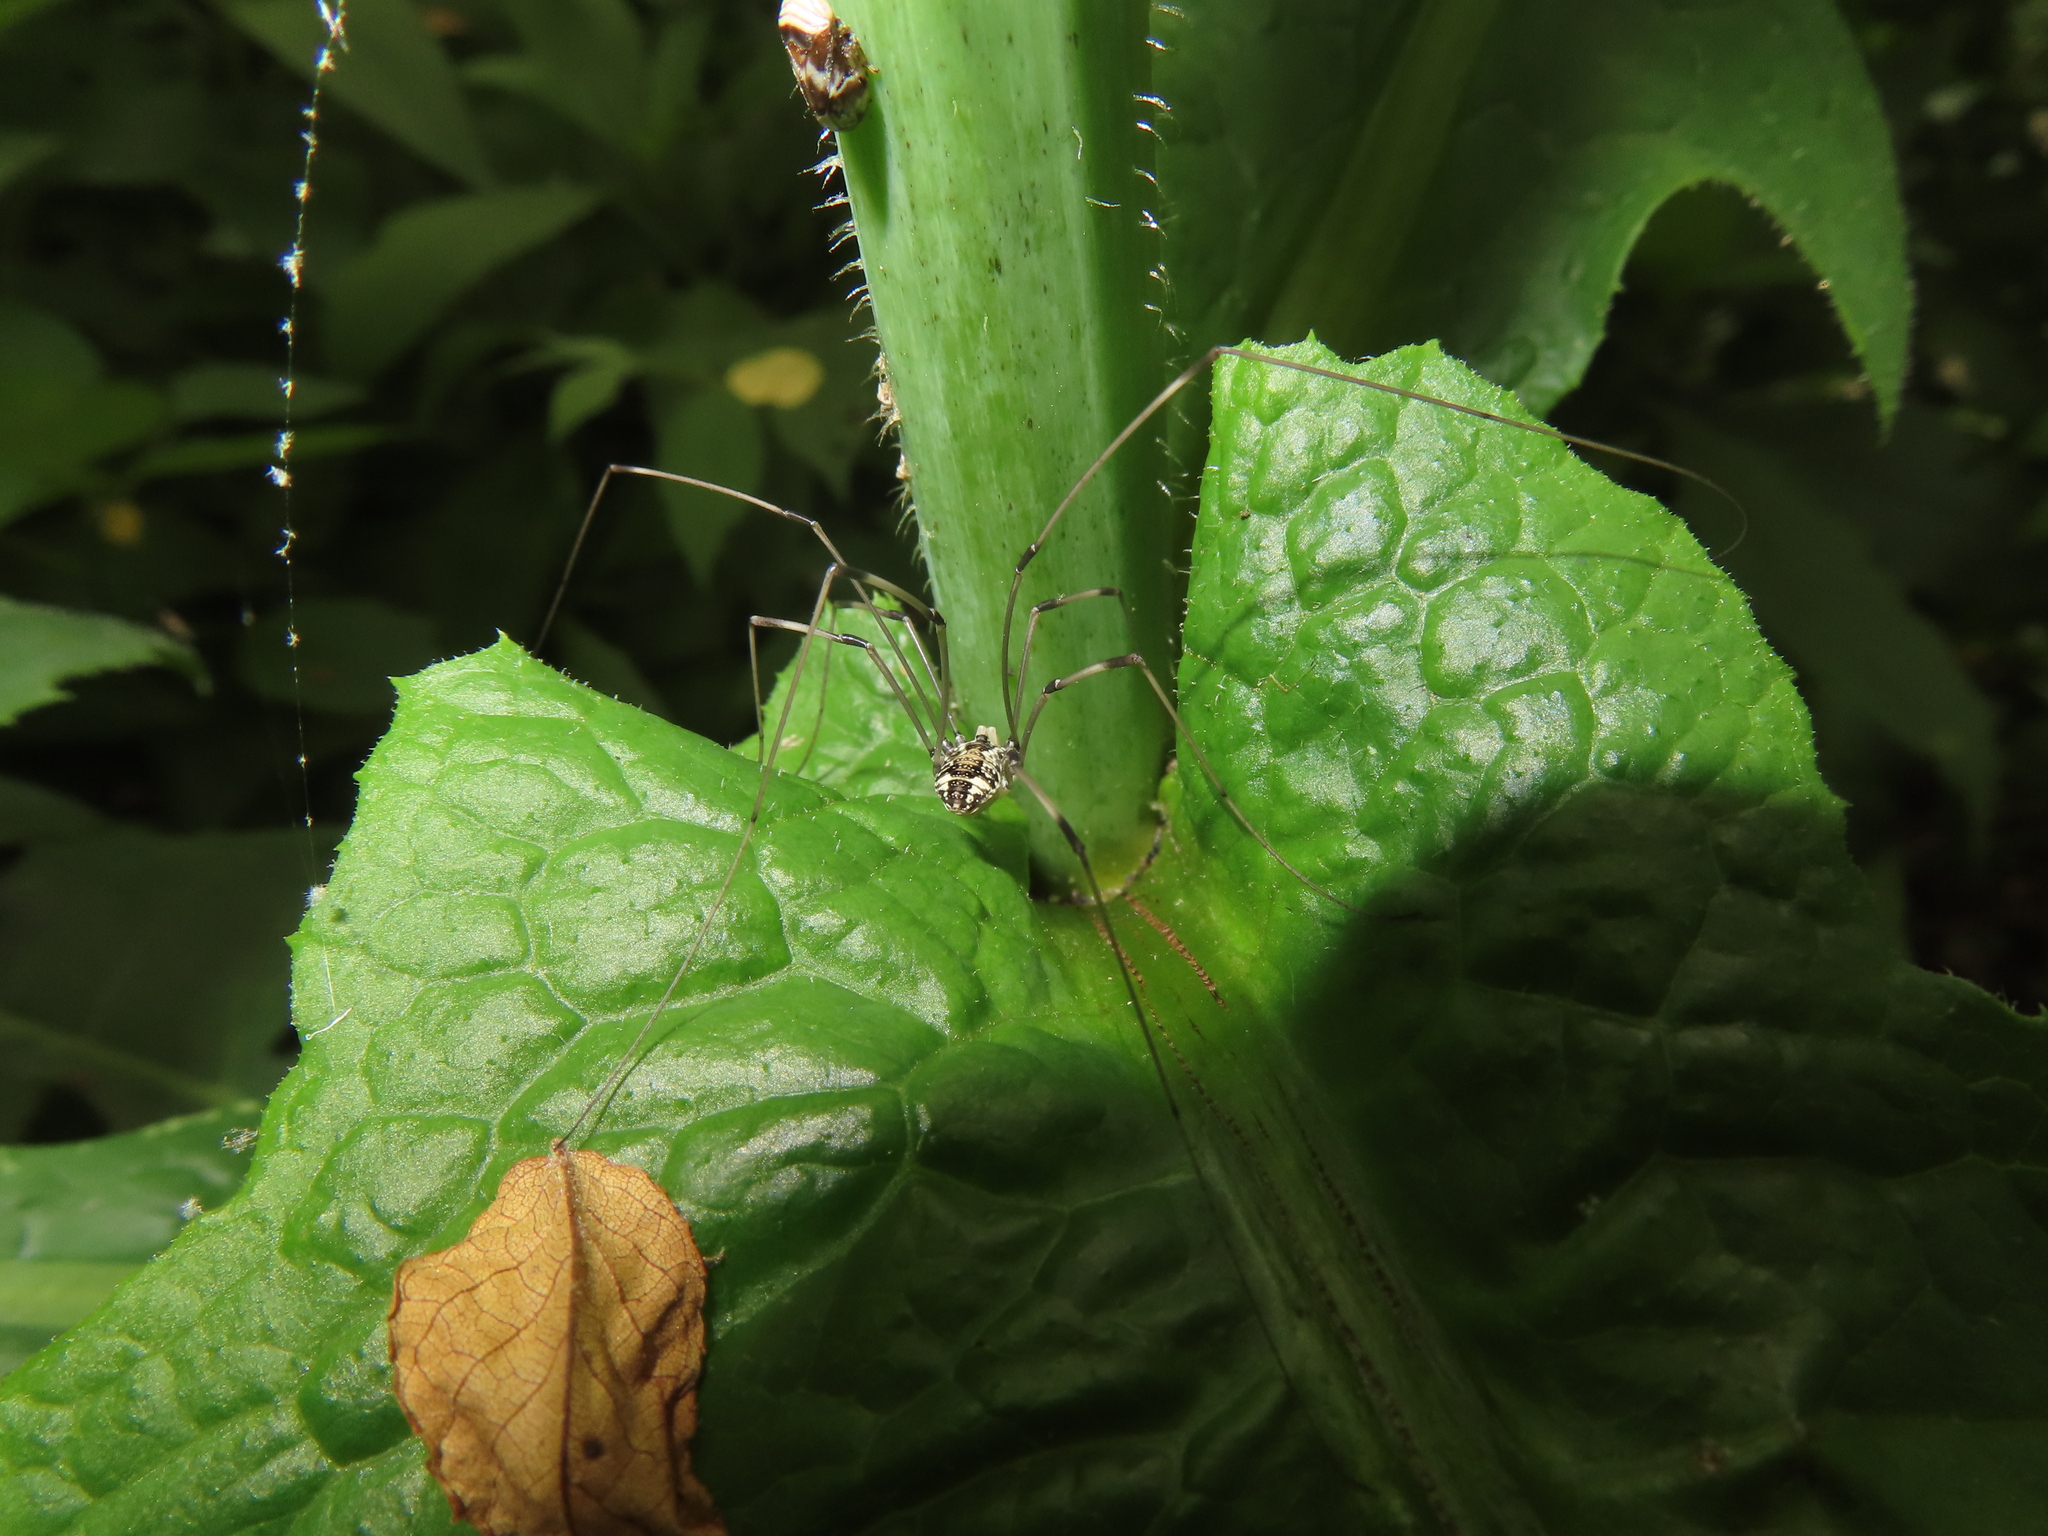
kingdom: Animalia
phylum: Arthropoda
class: Arachnida
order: Opiliones
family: Sclerosomatidae
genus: Leiobunum
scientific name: Leiobunum vittatum
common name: Eastern harvestman
